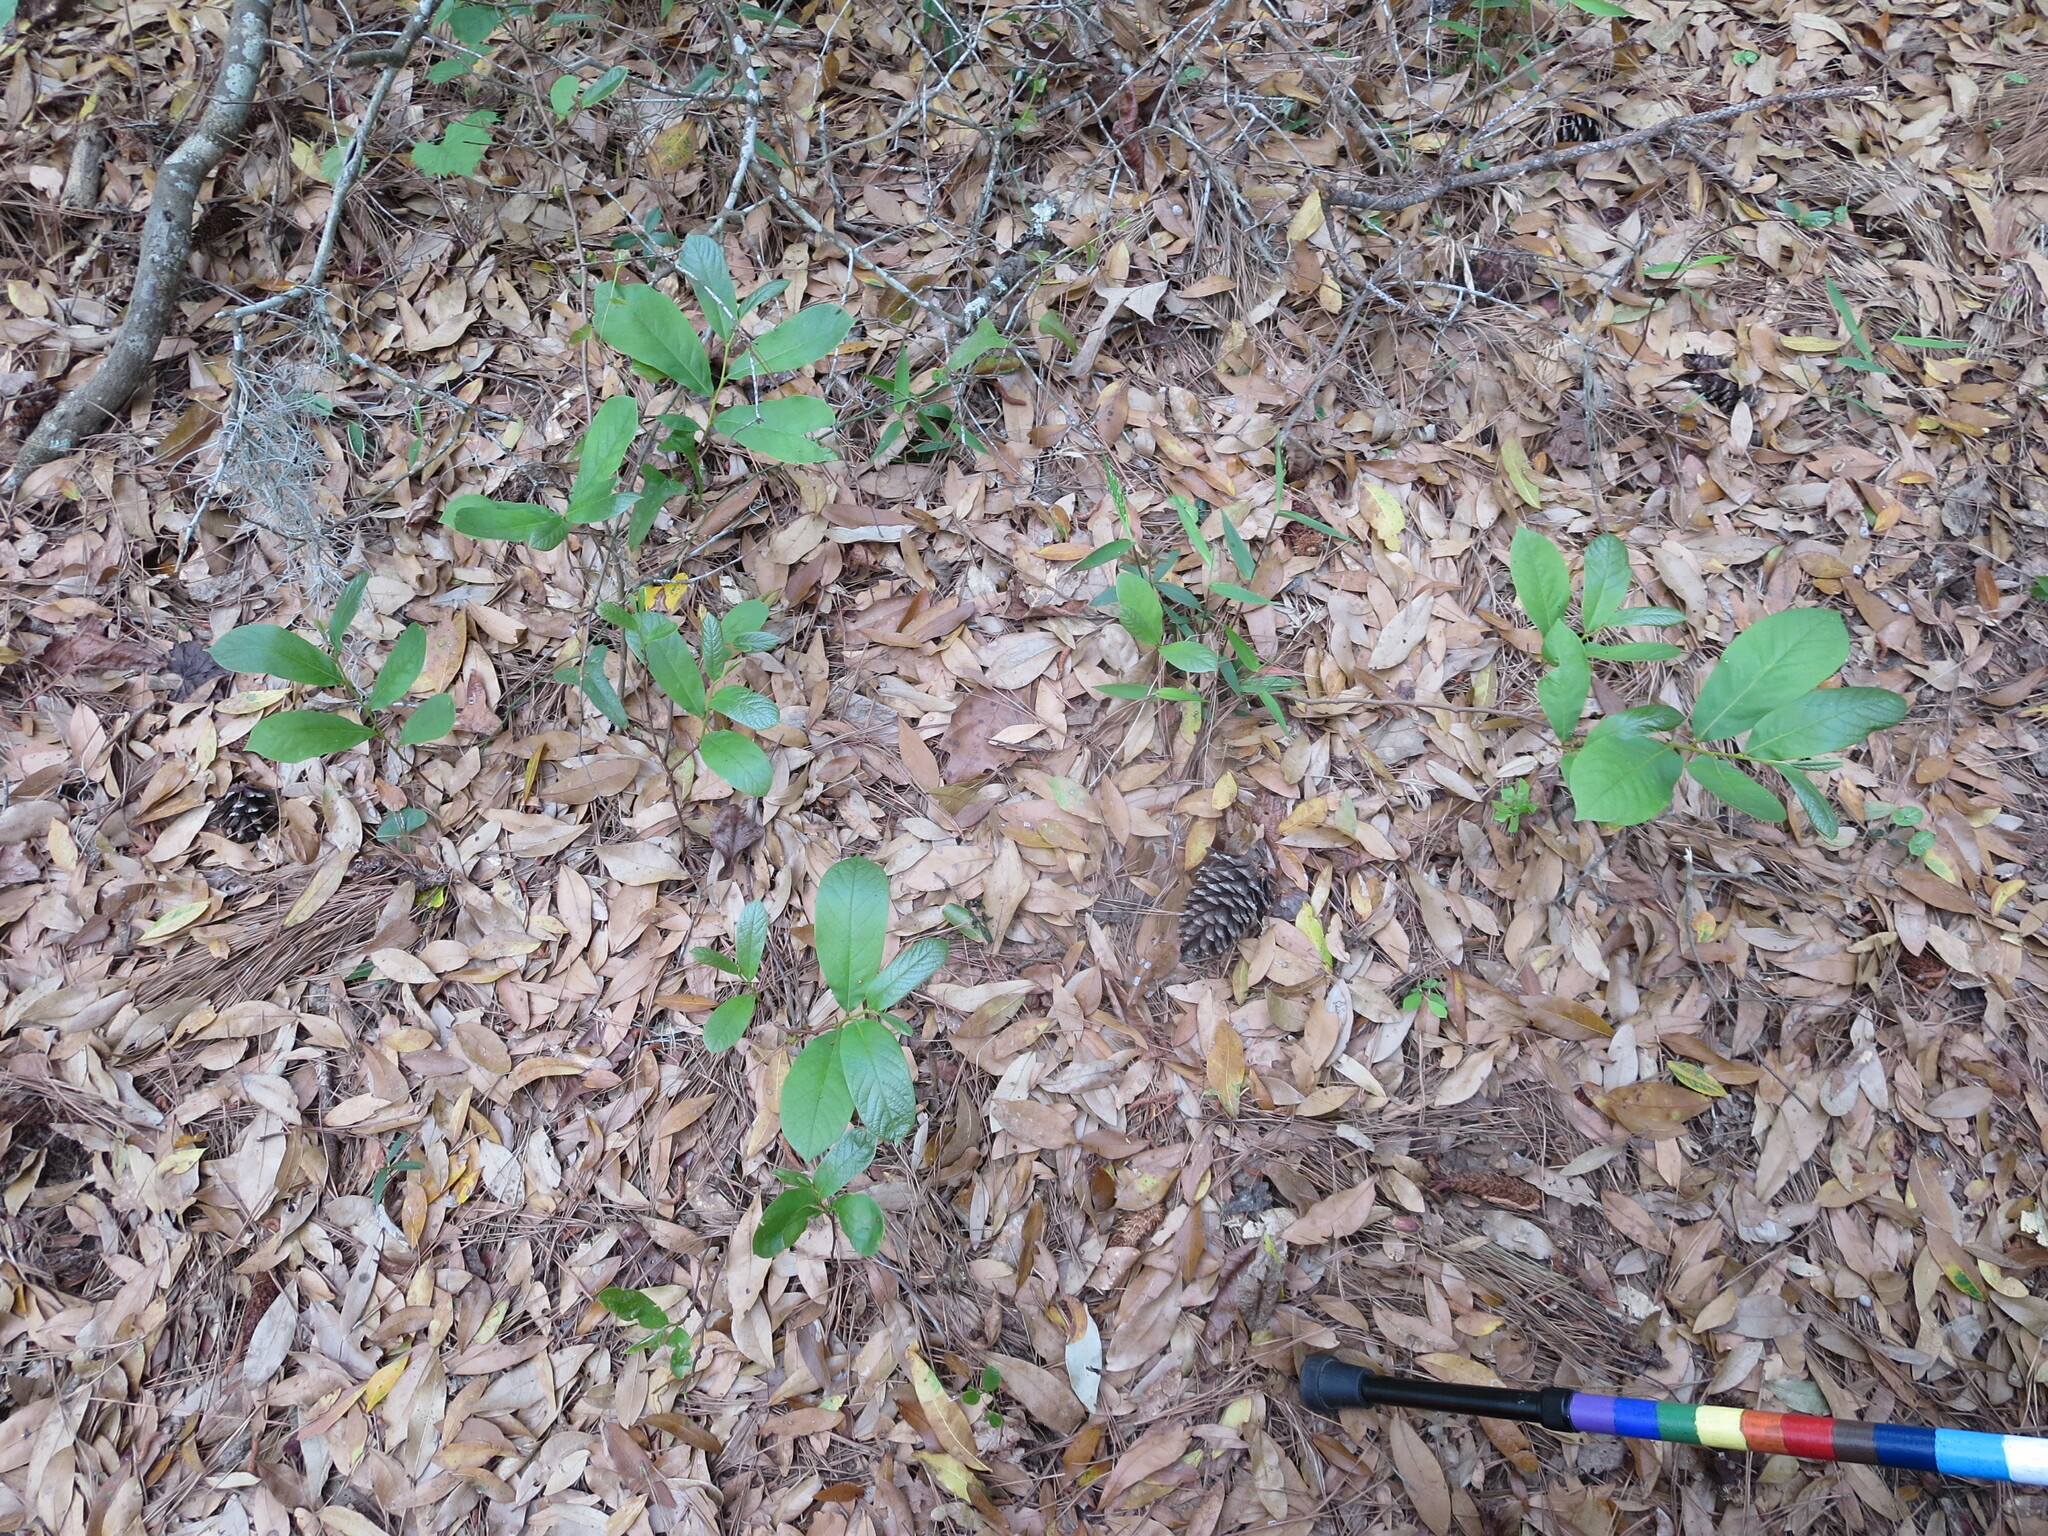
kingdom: Plantae
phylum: Tracheophyta
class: Magnoliopsida
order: Magnoliales
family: Annonaceae
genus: Asimina
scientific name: Asimina parviflora
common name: Dwarf pawpaw
